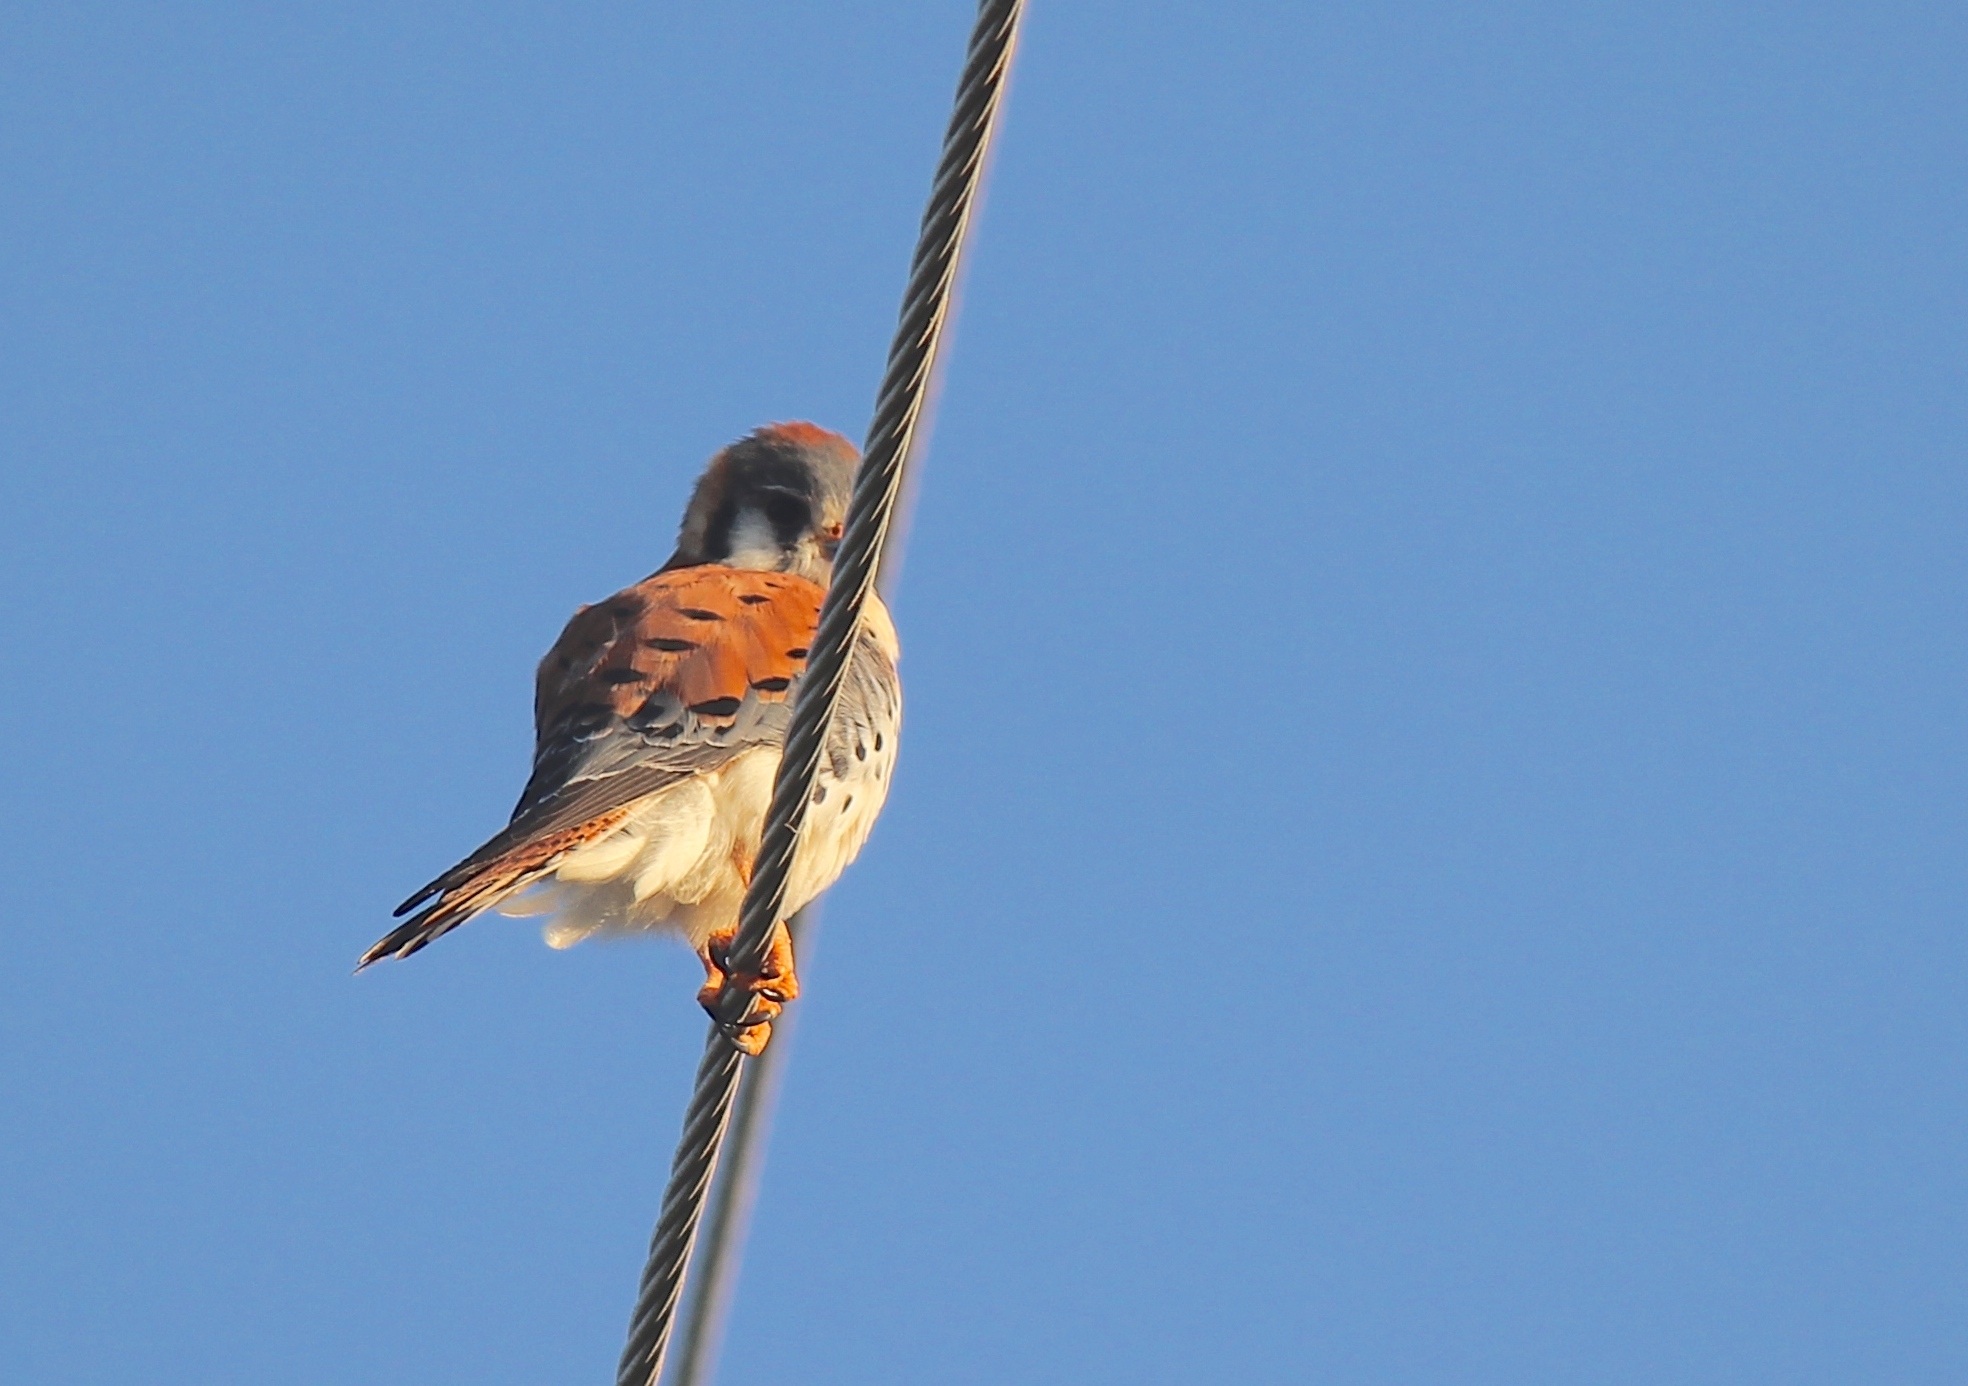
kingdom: Animalia
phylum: Chordata
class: Aves
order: Falconiformes
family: Falconidae
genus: Falco
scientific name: Falco sparverius
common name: American kestrel
